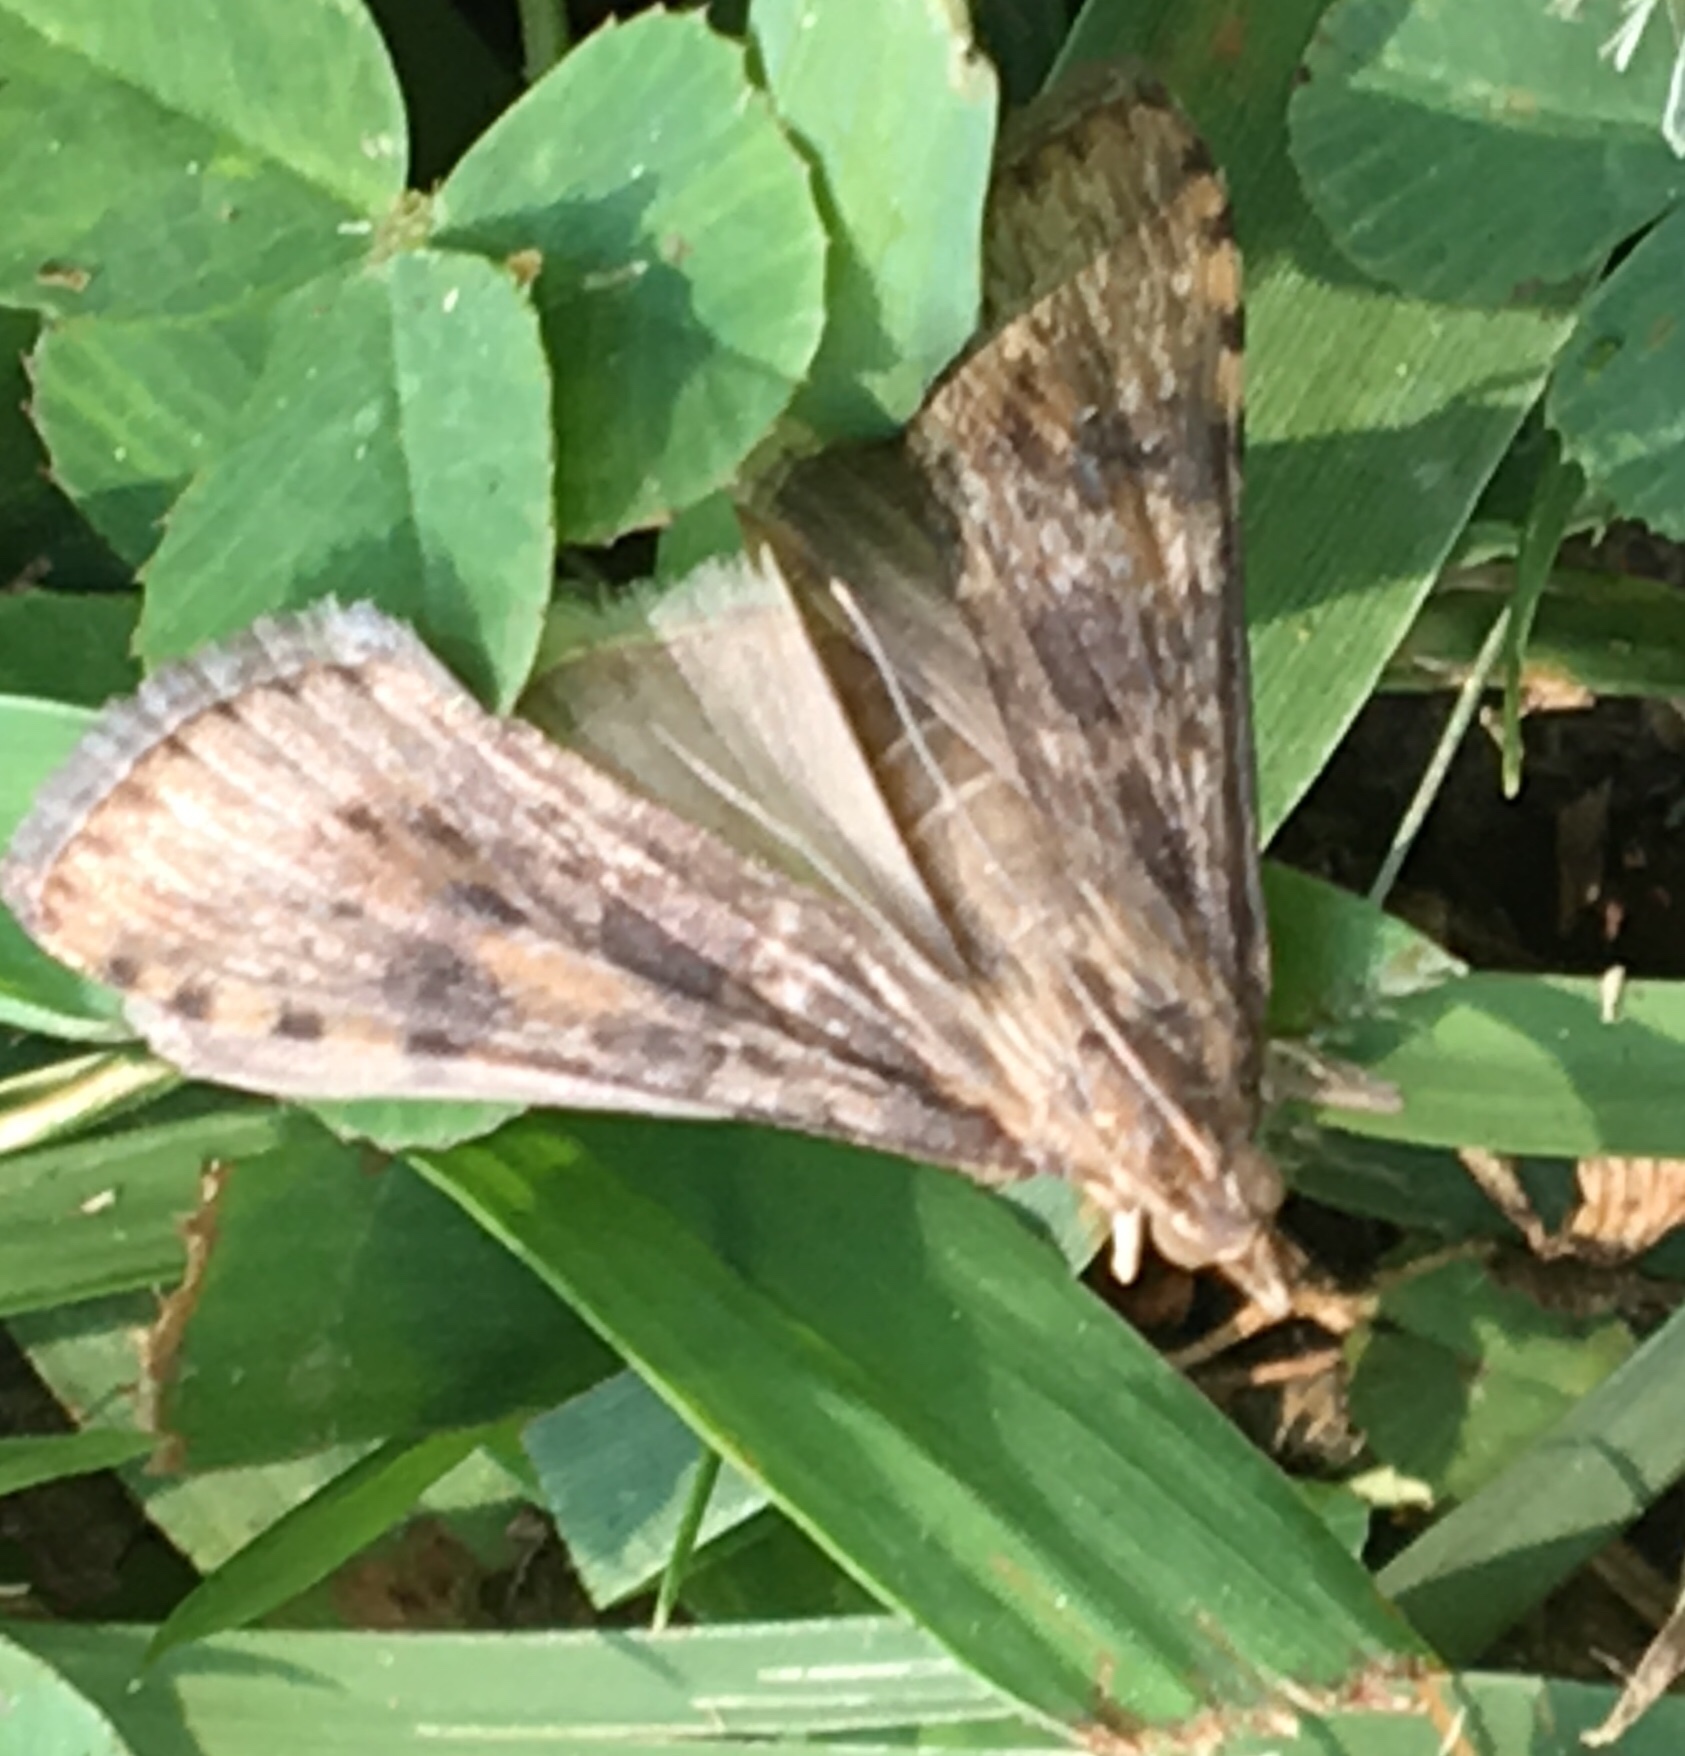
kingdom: Animalia
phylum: Arthropoda
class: Insecta
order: Lepidoptera
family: Crambidae
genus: Nomophila
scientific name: Nomophila nearctica
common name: American rush veneer
